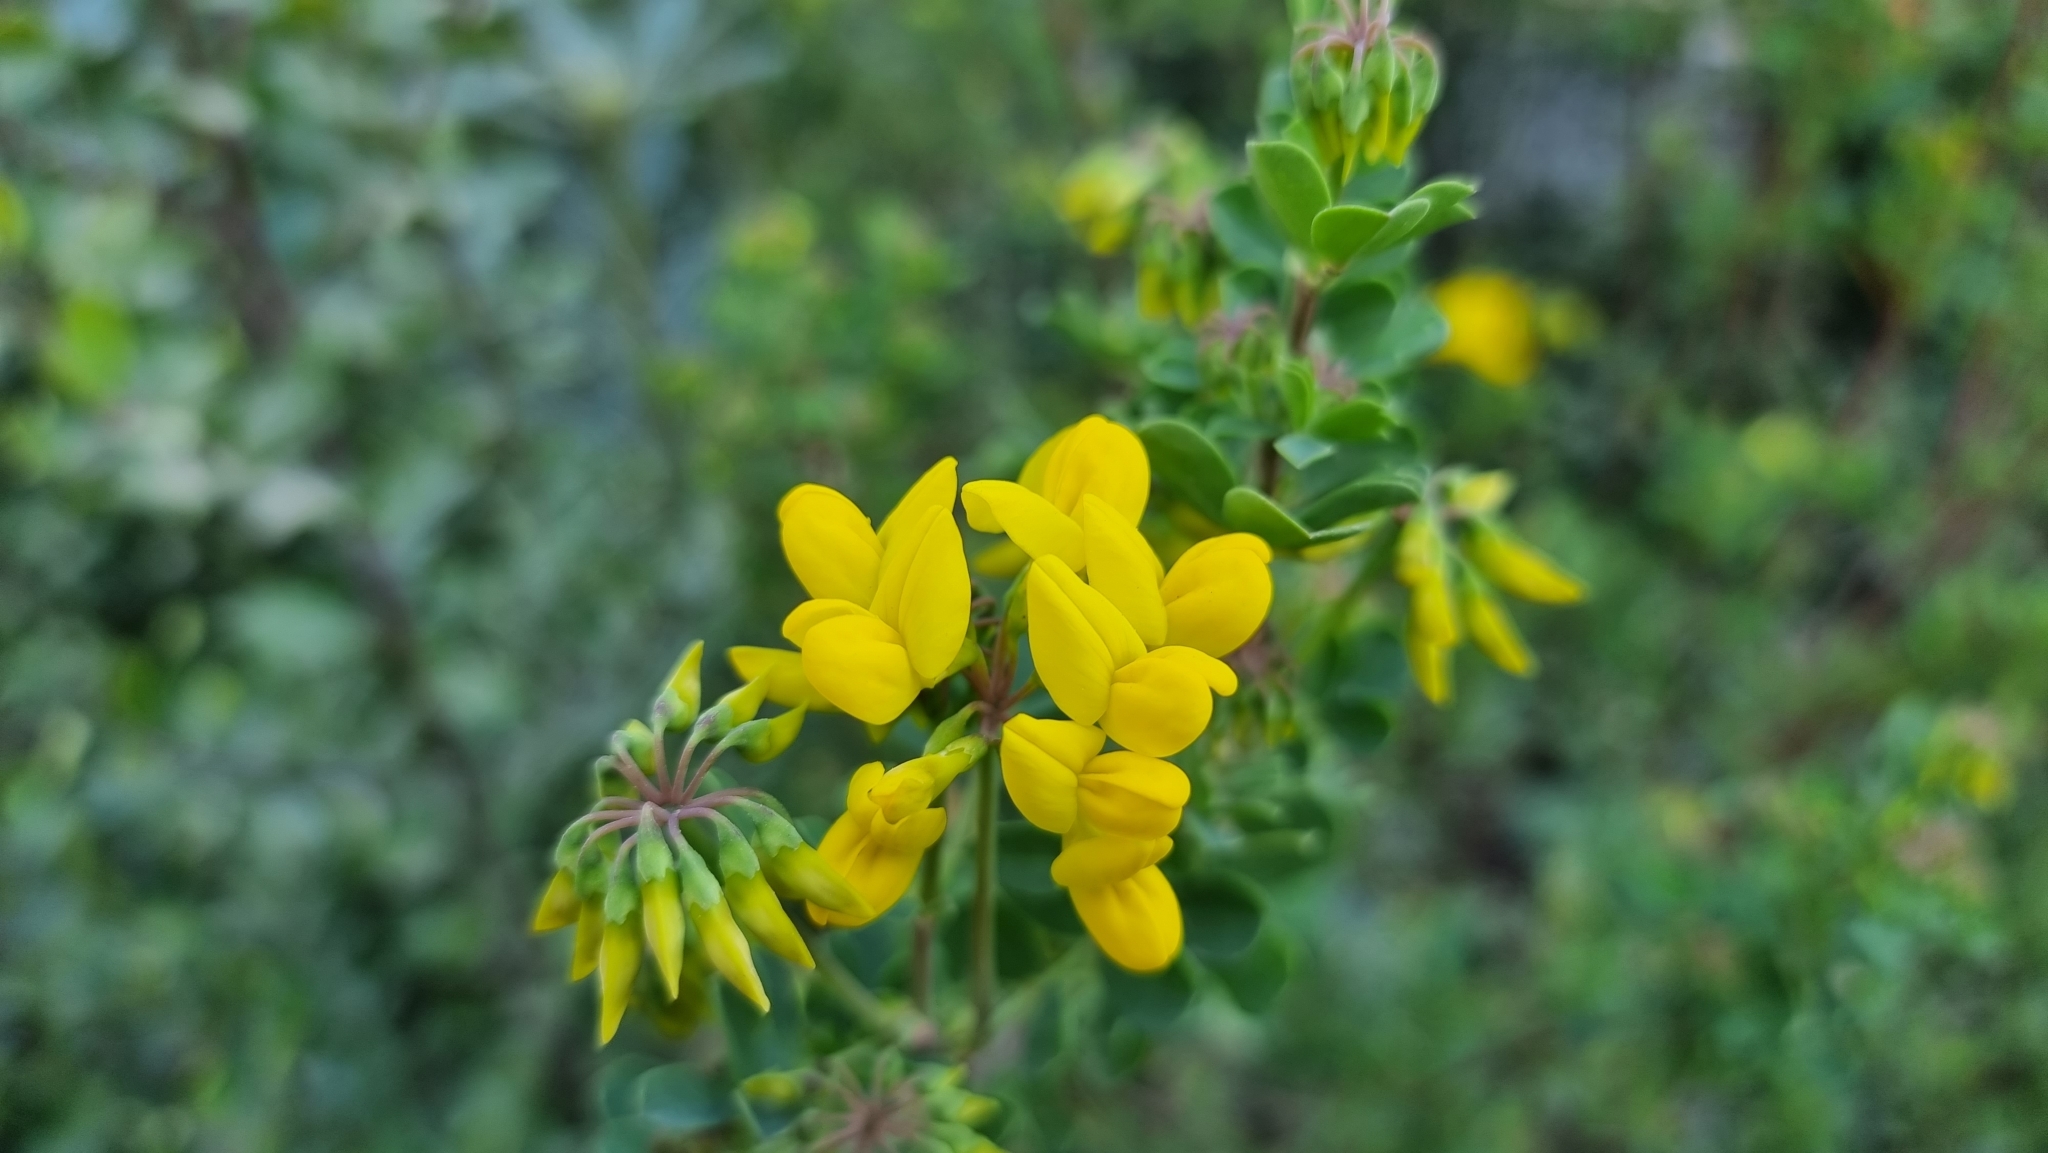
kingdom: Plantae
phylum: Tracheophyta
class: Magnoliopsida
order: Fabales
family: Fabaceae
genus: Coronilla
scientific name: Coronilla valentina
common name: Shrubby scorpion-vetch
